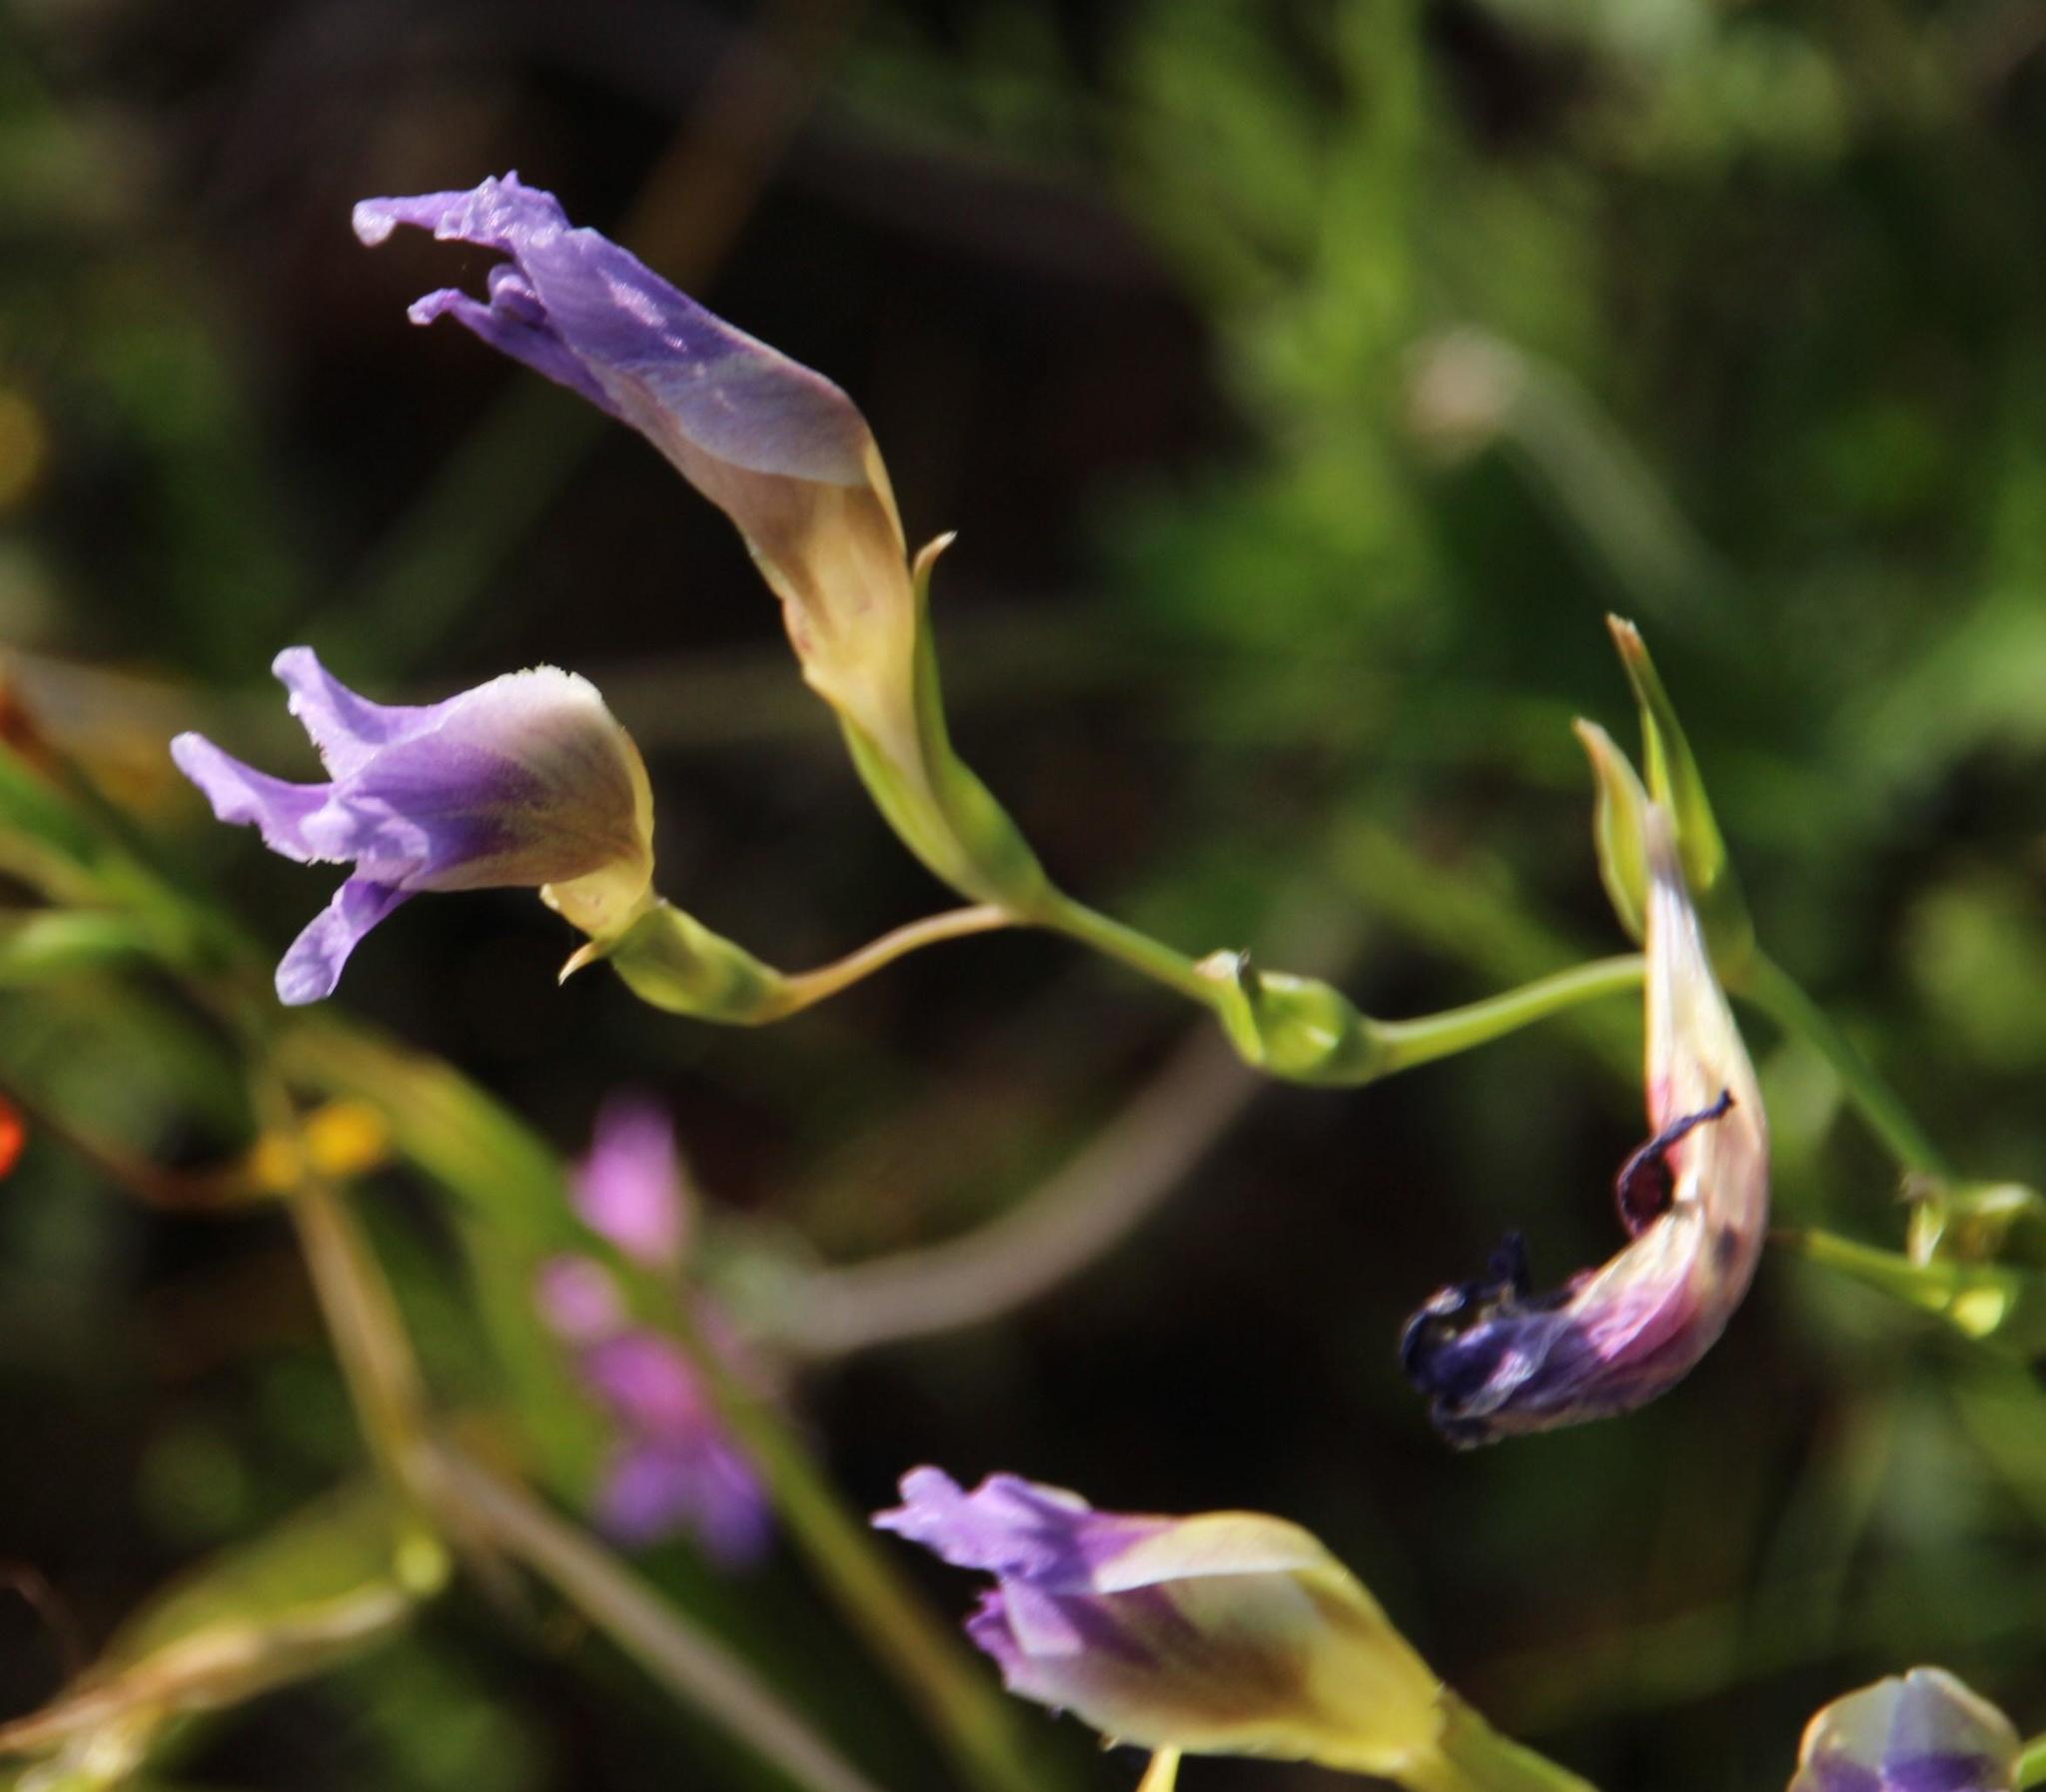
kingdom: Plantae
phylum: Tracheophyta
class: Liliopsida
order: Asparagales
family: Iridaceae
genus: Gladiolus
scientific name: Gladiolus venustus
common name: Purple kalkoentjie
